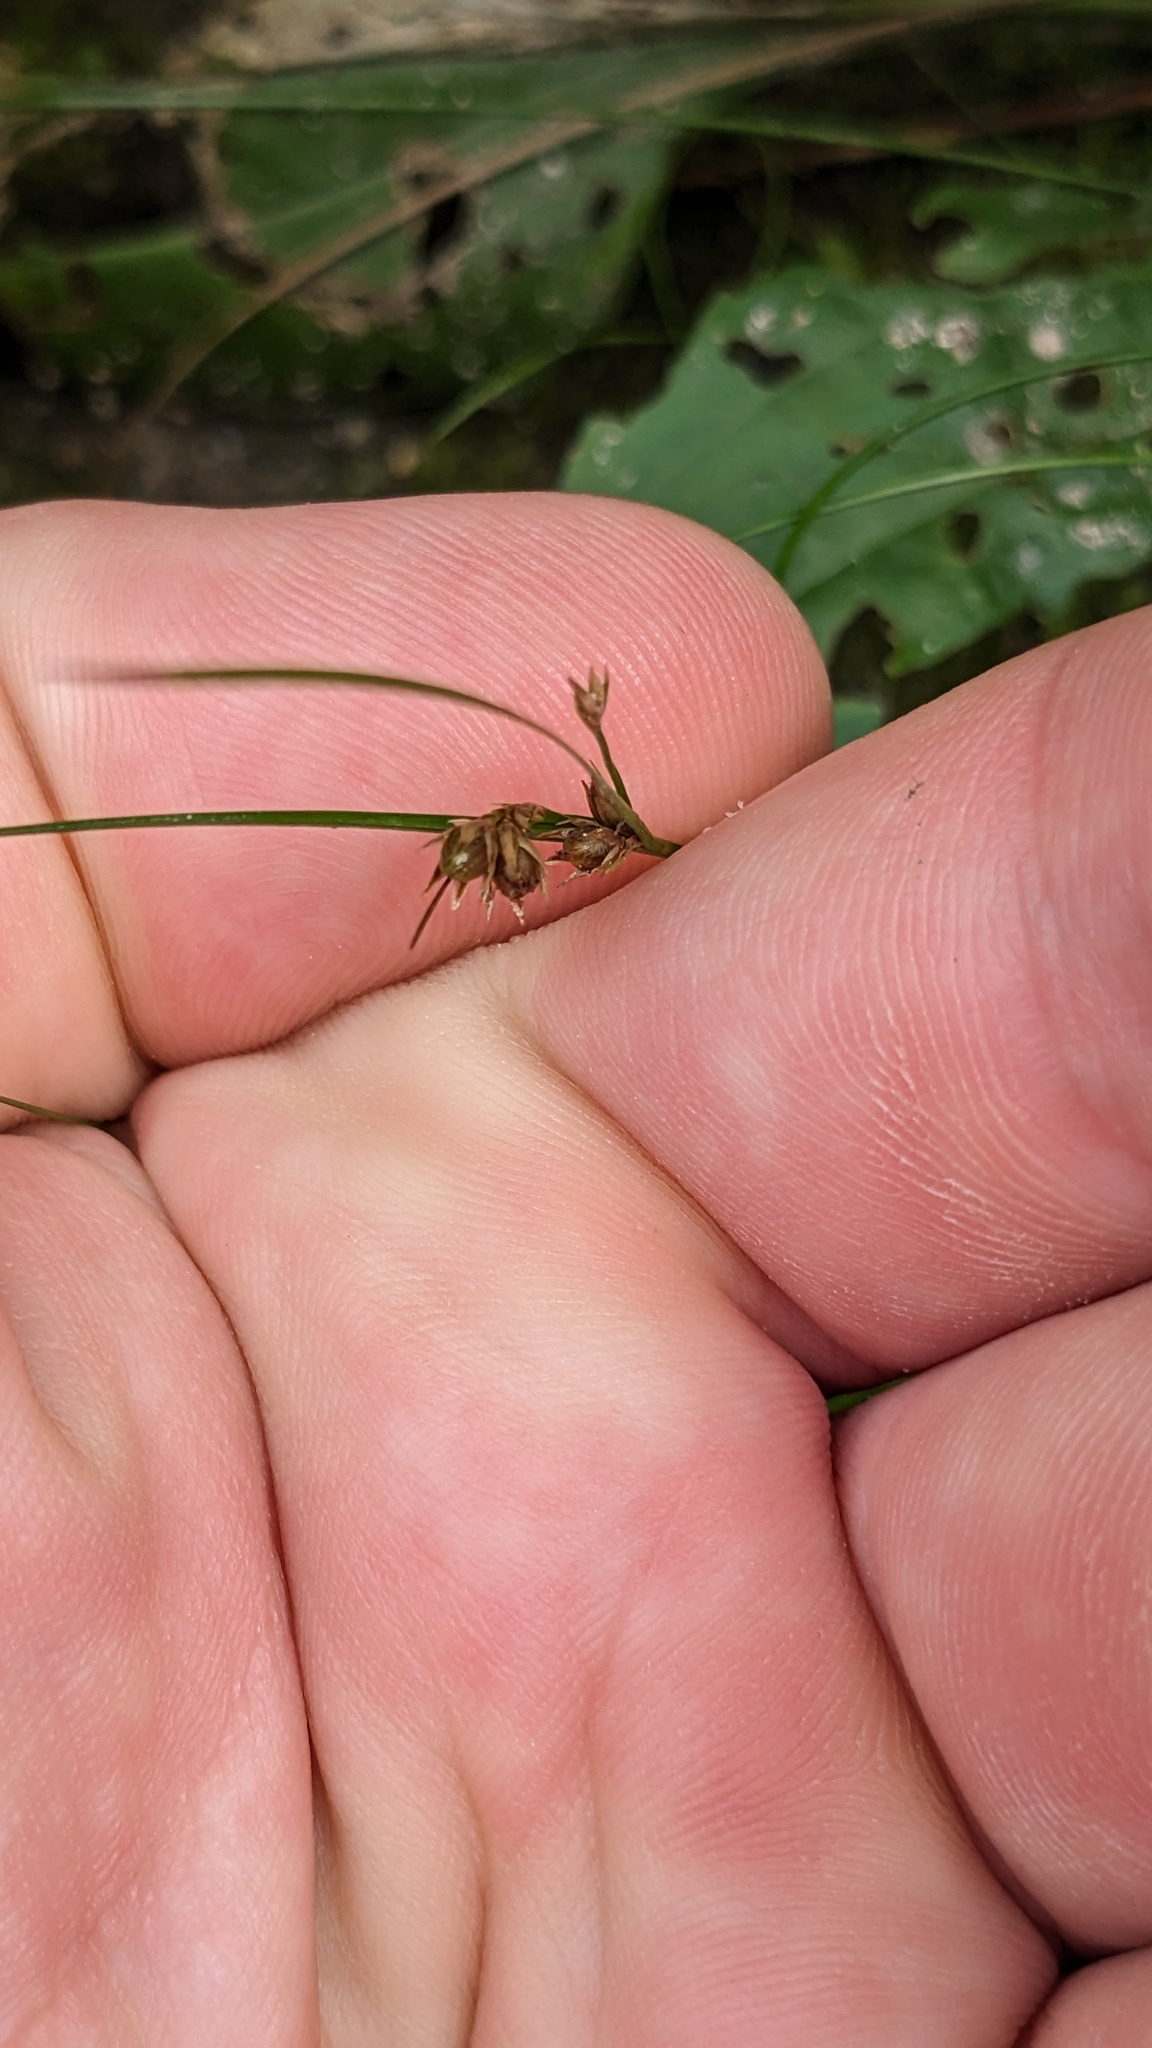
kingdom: Plantae
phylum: Tracheophyta
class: Liliopsida
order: Poales
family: Juncaceae
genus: Juncus
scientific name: Juncus tenuis
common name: Slender rush
